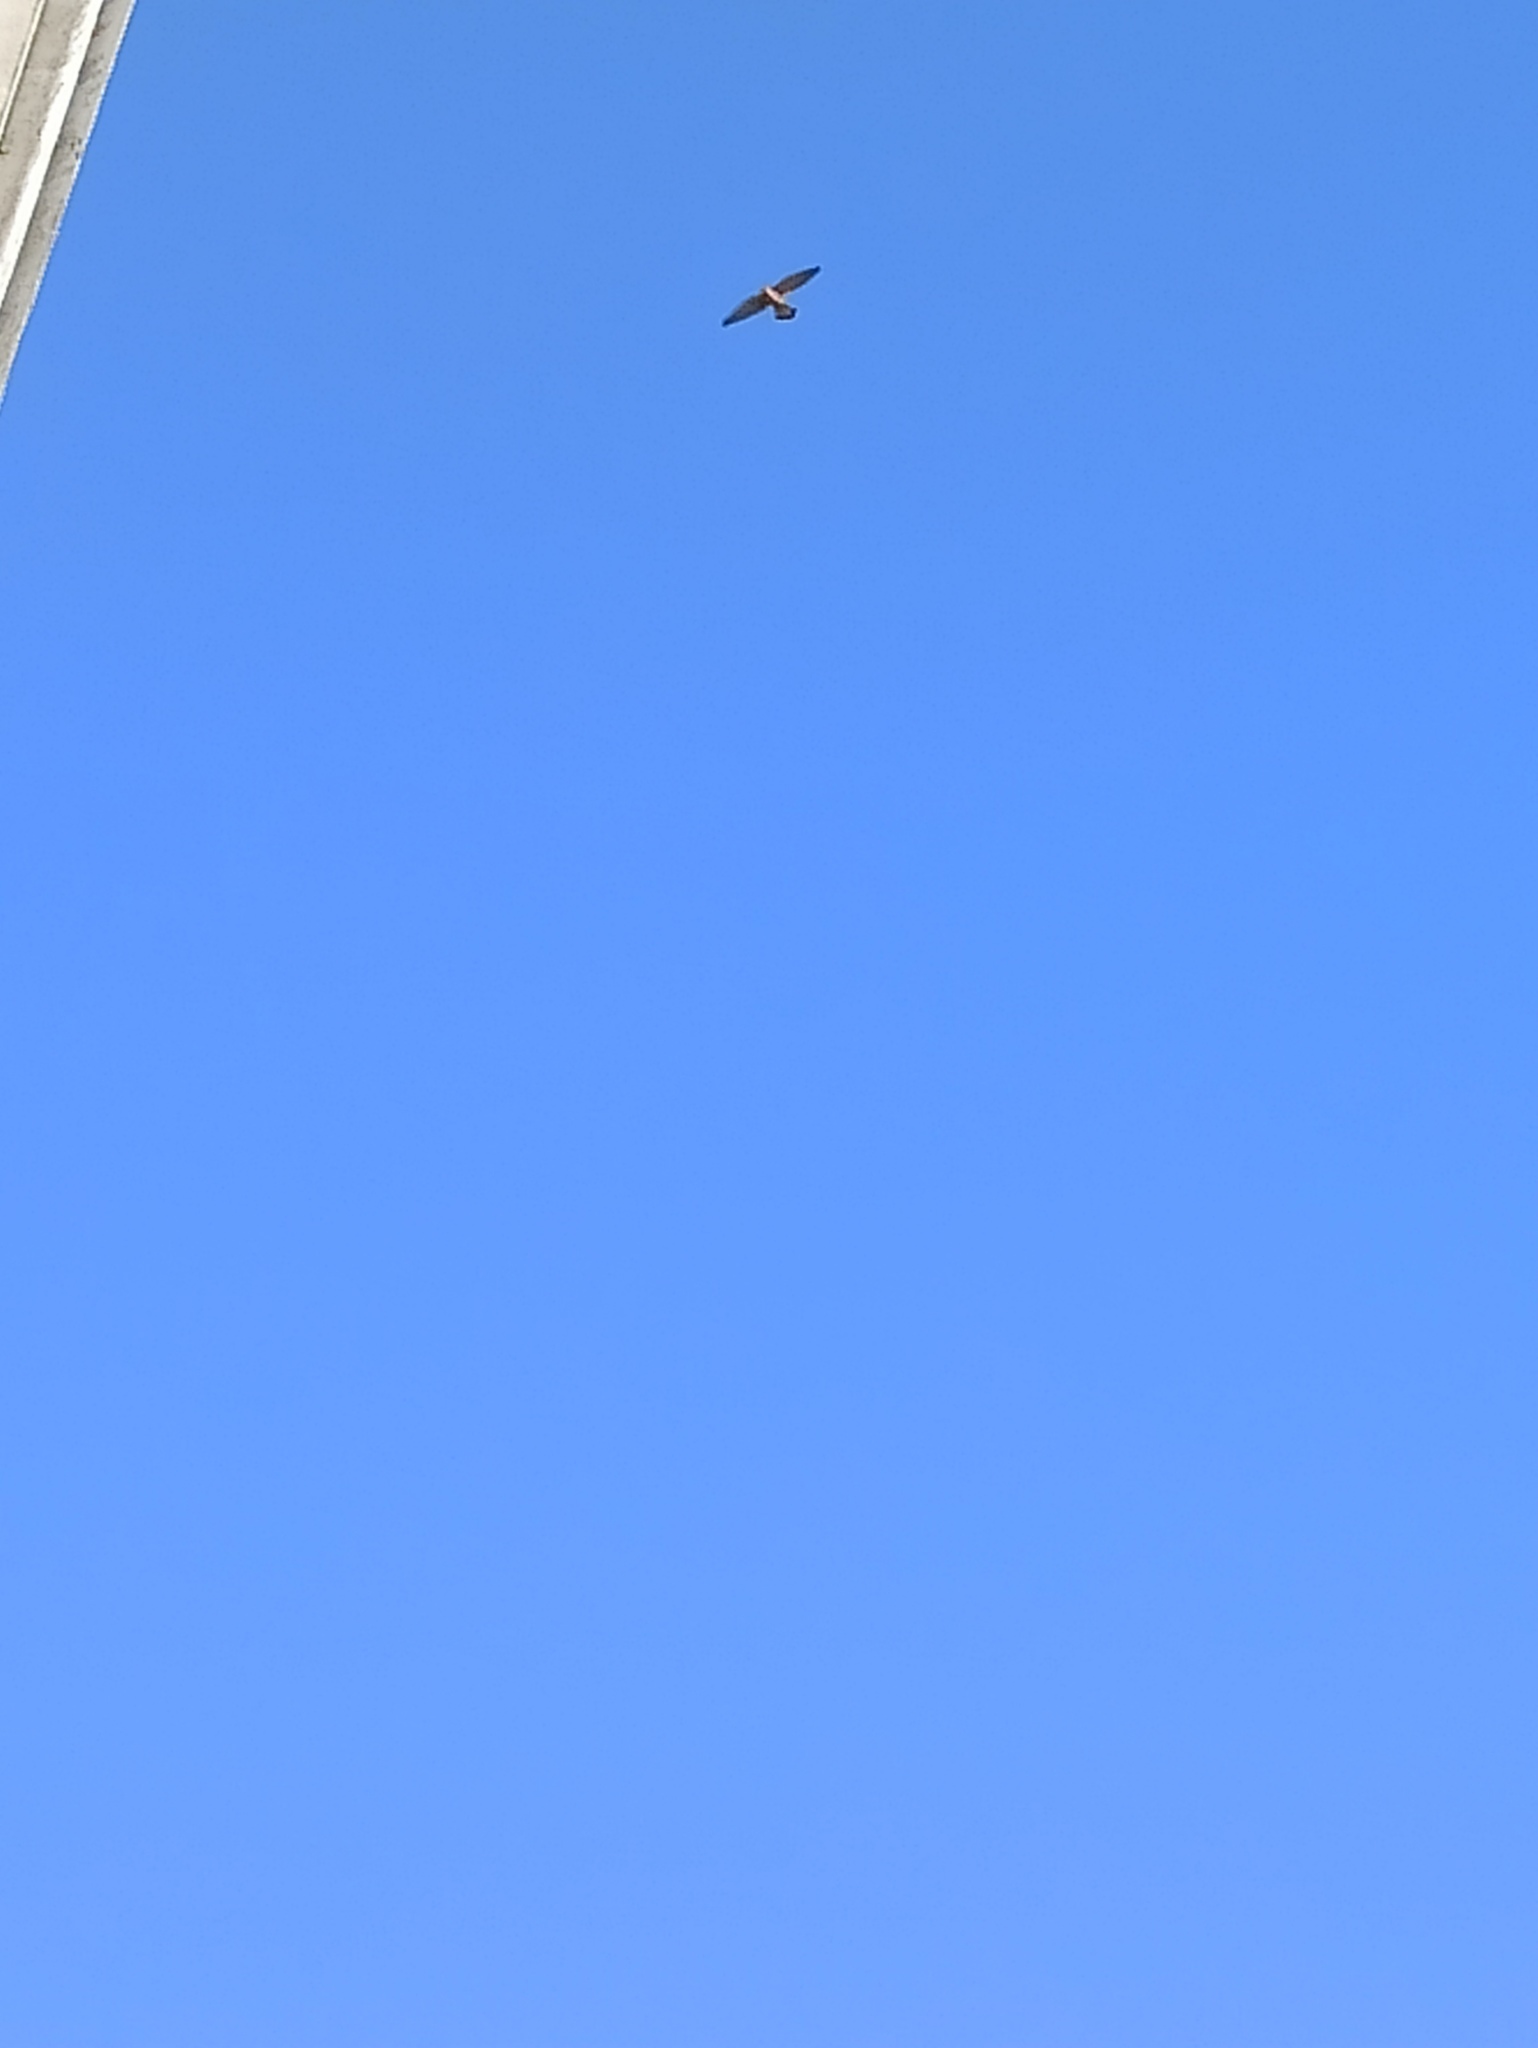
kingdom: Animalia
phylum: Chordata
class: Aves
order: Falconiformes
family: Falconidae
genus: Falco
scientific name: Falco tinnunculus
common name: Common kestrel
